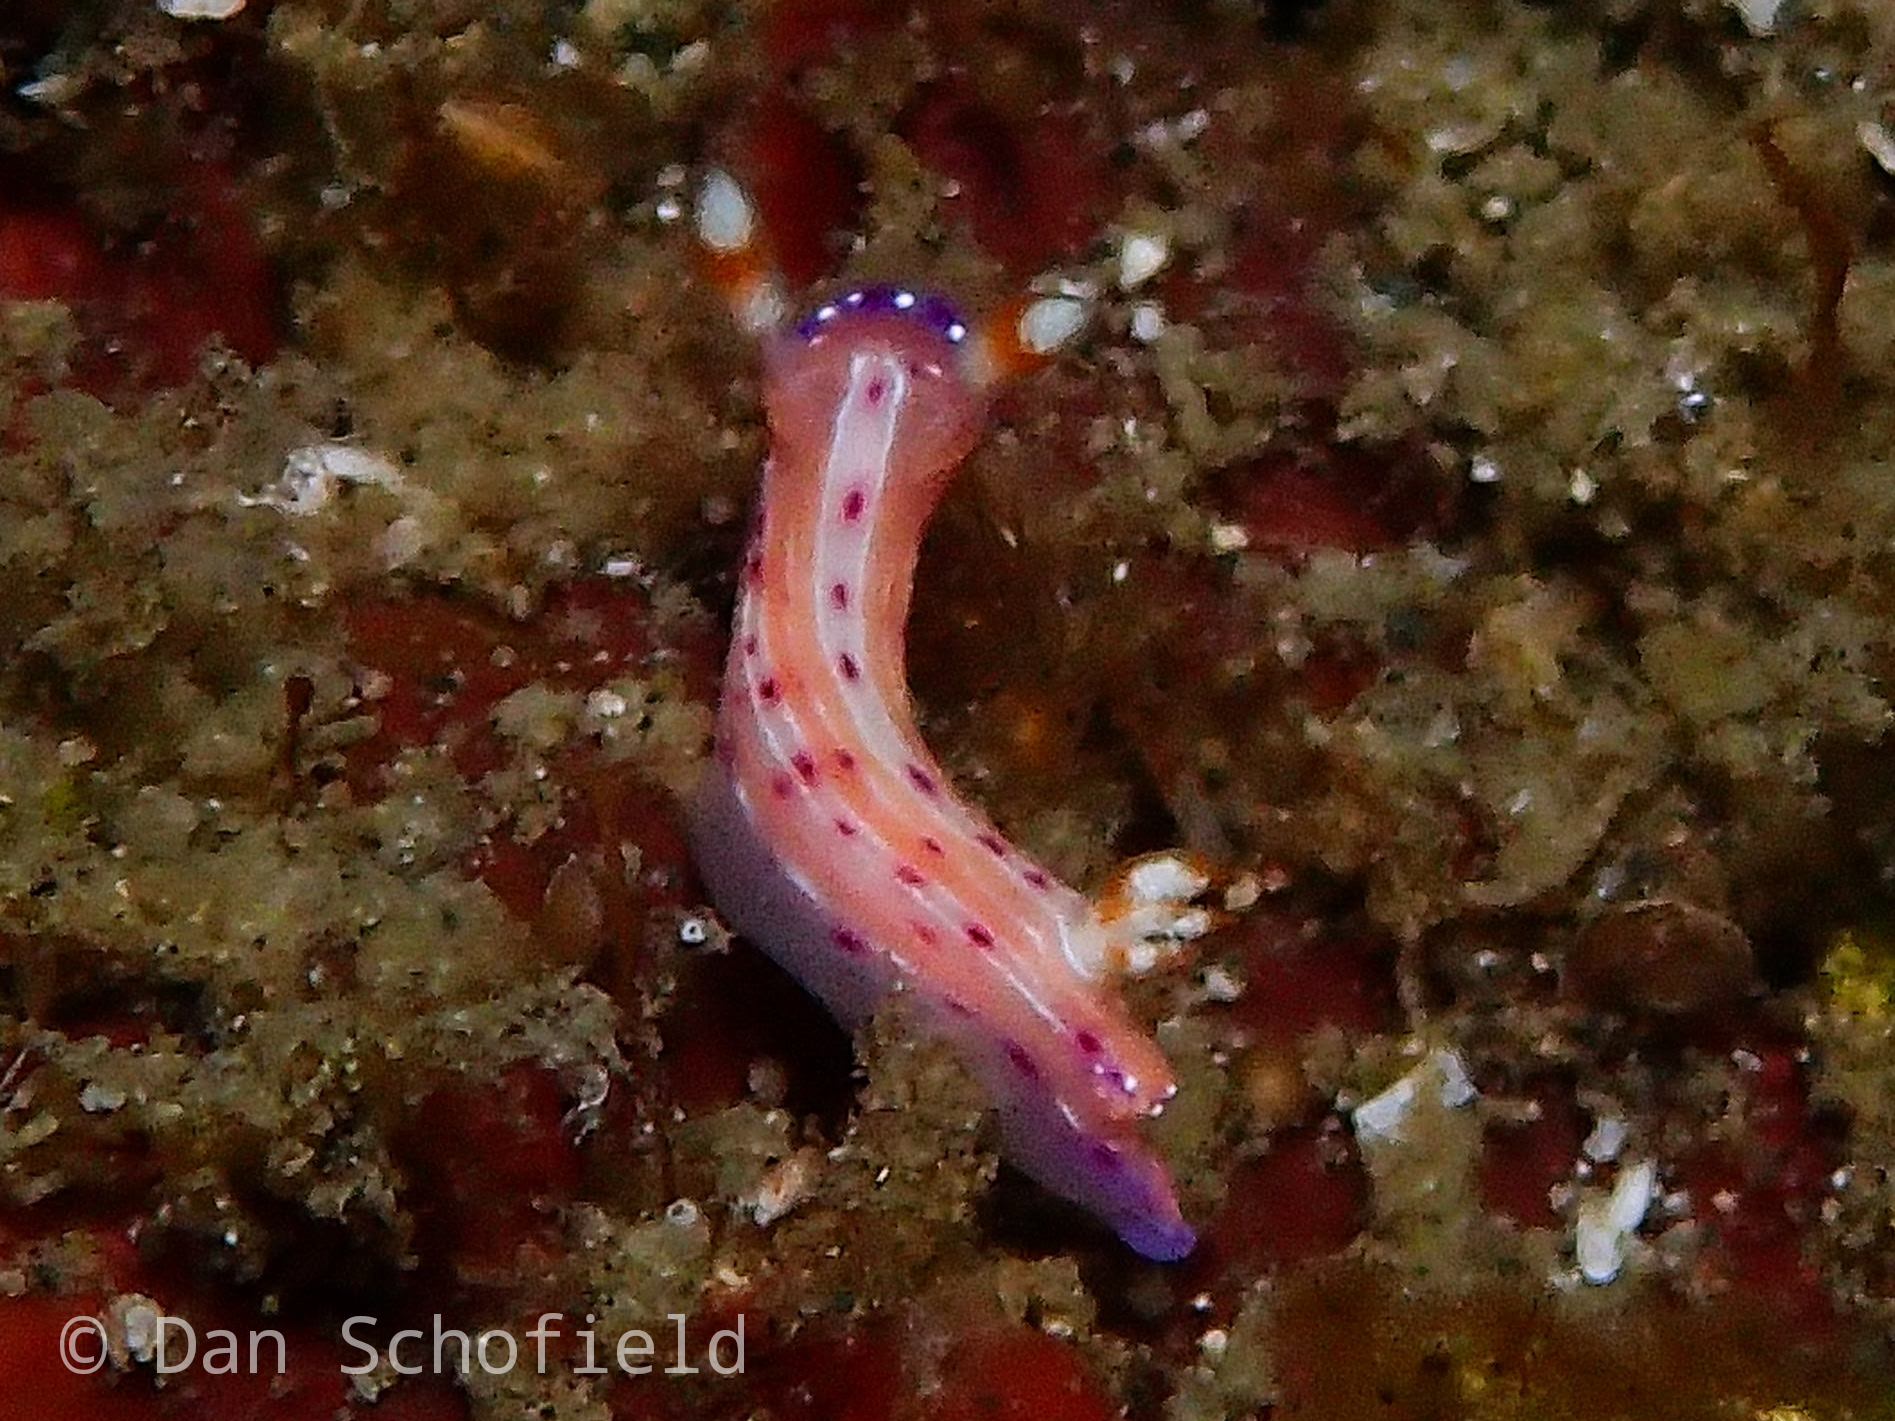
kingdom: Animalia
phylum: Mollusca
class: Gastropoda
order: Nudibranchia
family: Chromodorididae
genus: Hypselodoris
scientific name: Hypselodoris maculosa
